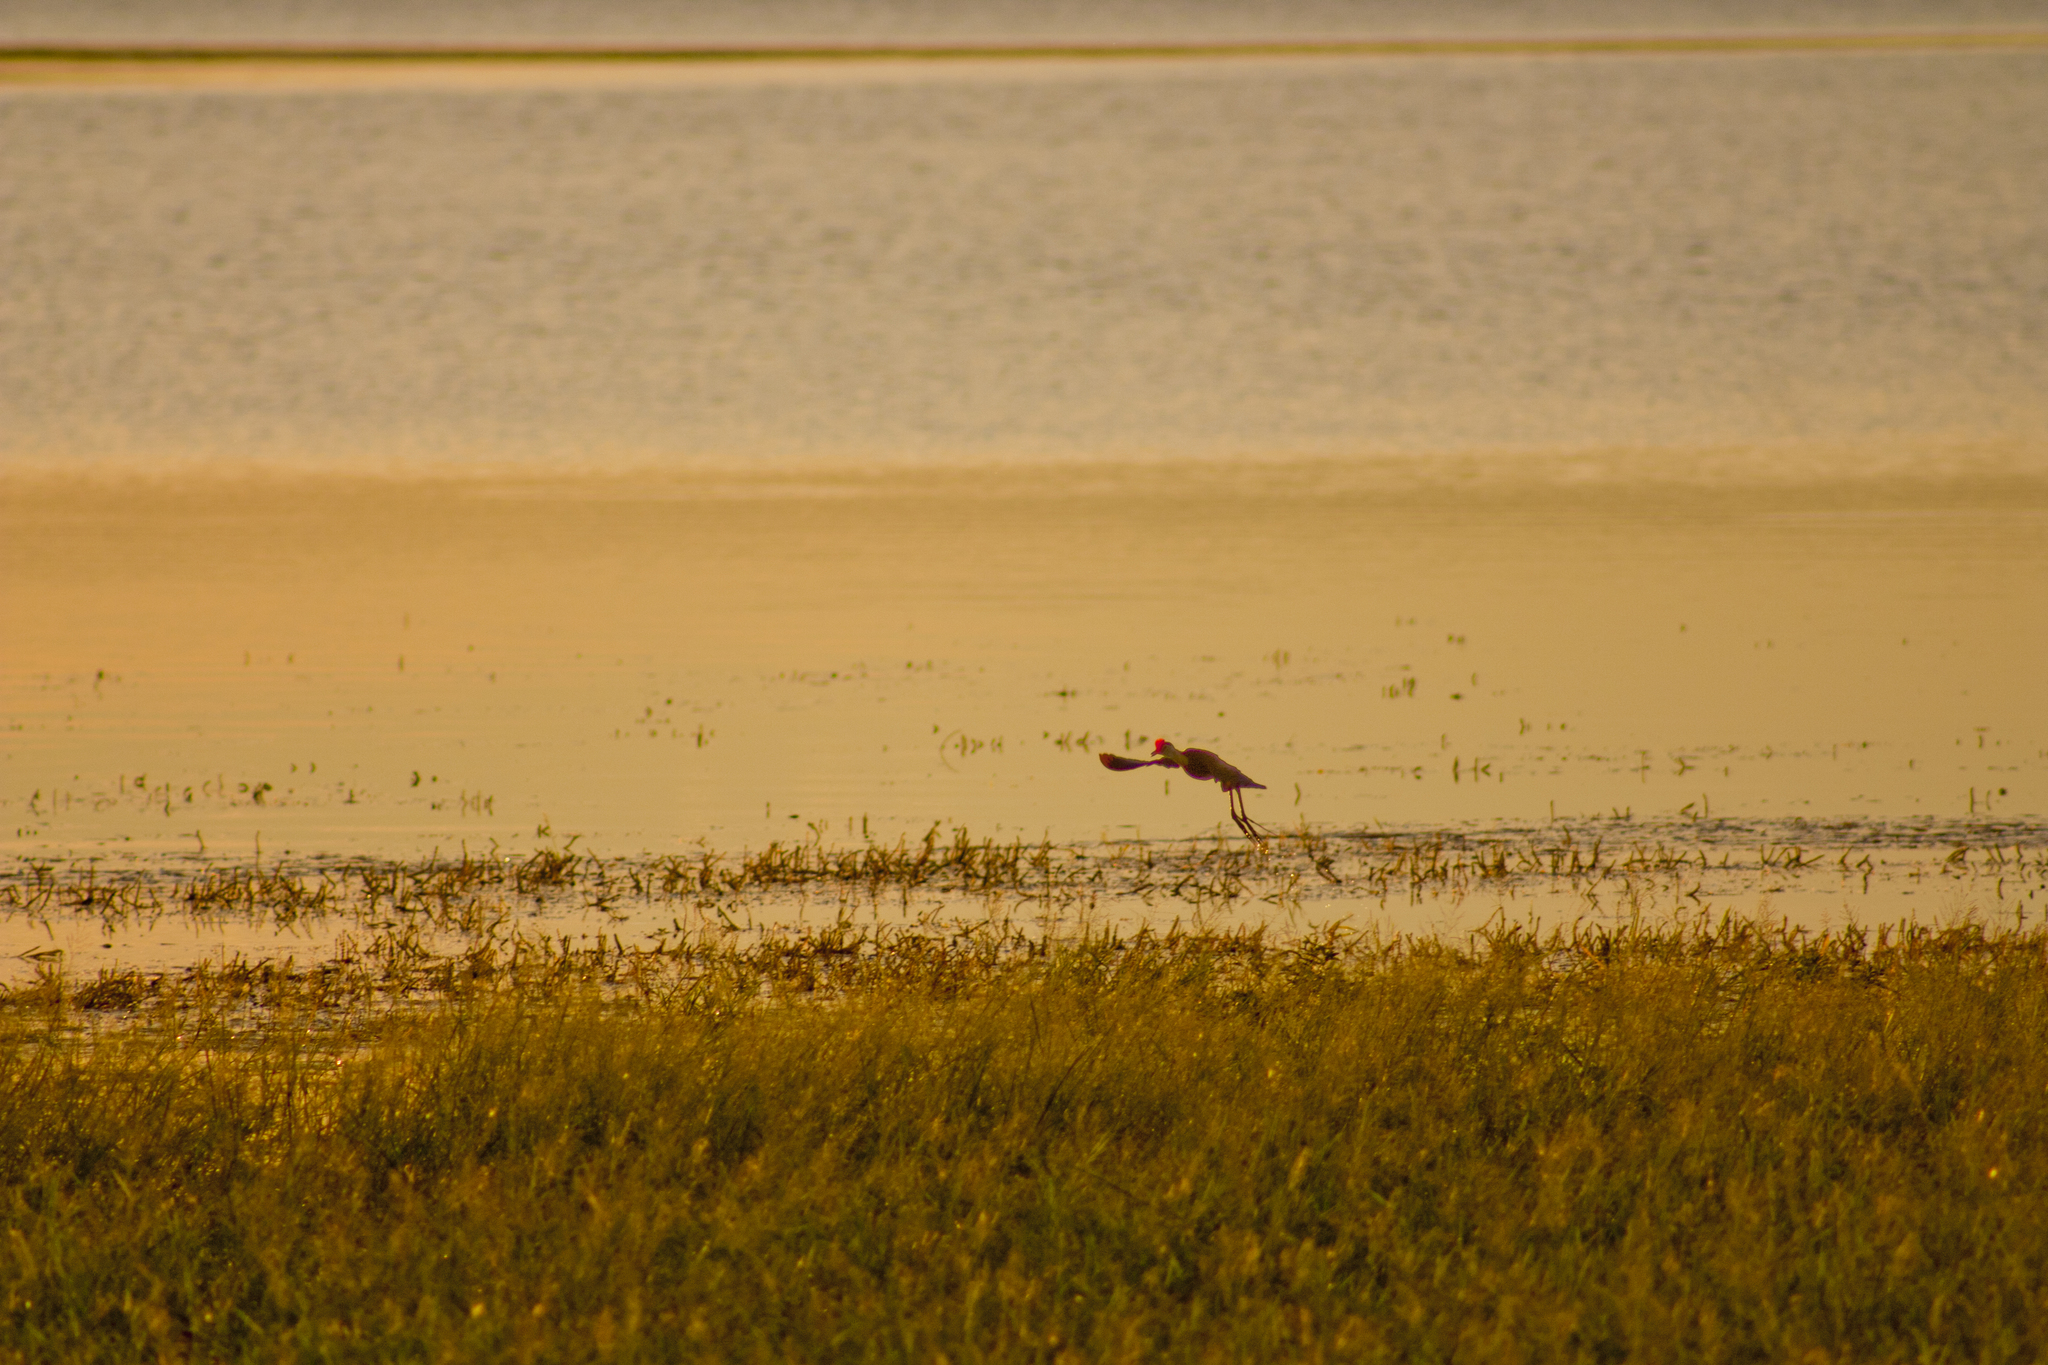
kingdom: Animalia
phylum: Chordata
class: Aves
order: Charadriiformes
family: Jacanidae
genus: Irediparra
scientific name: Irediparra gallinacea
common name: Comb-crested jacana
